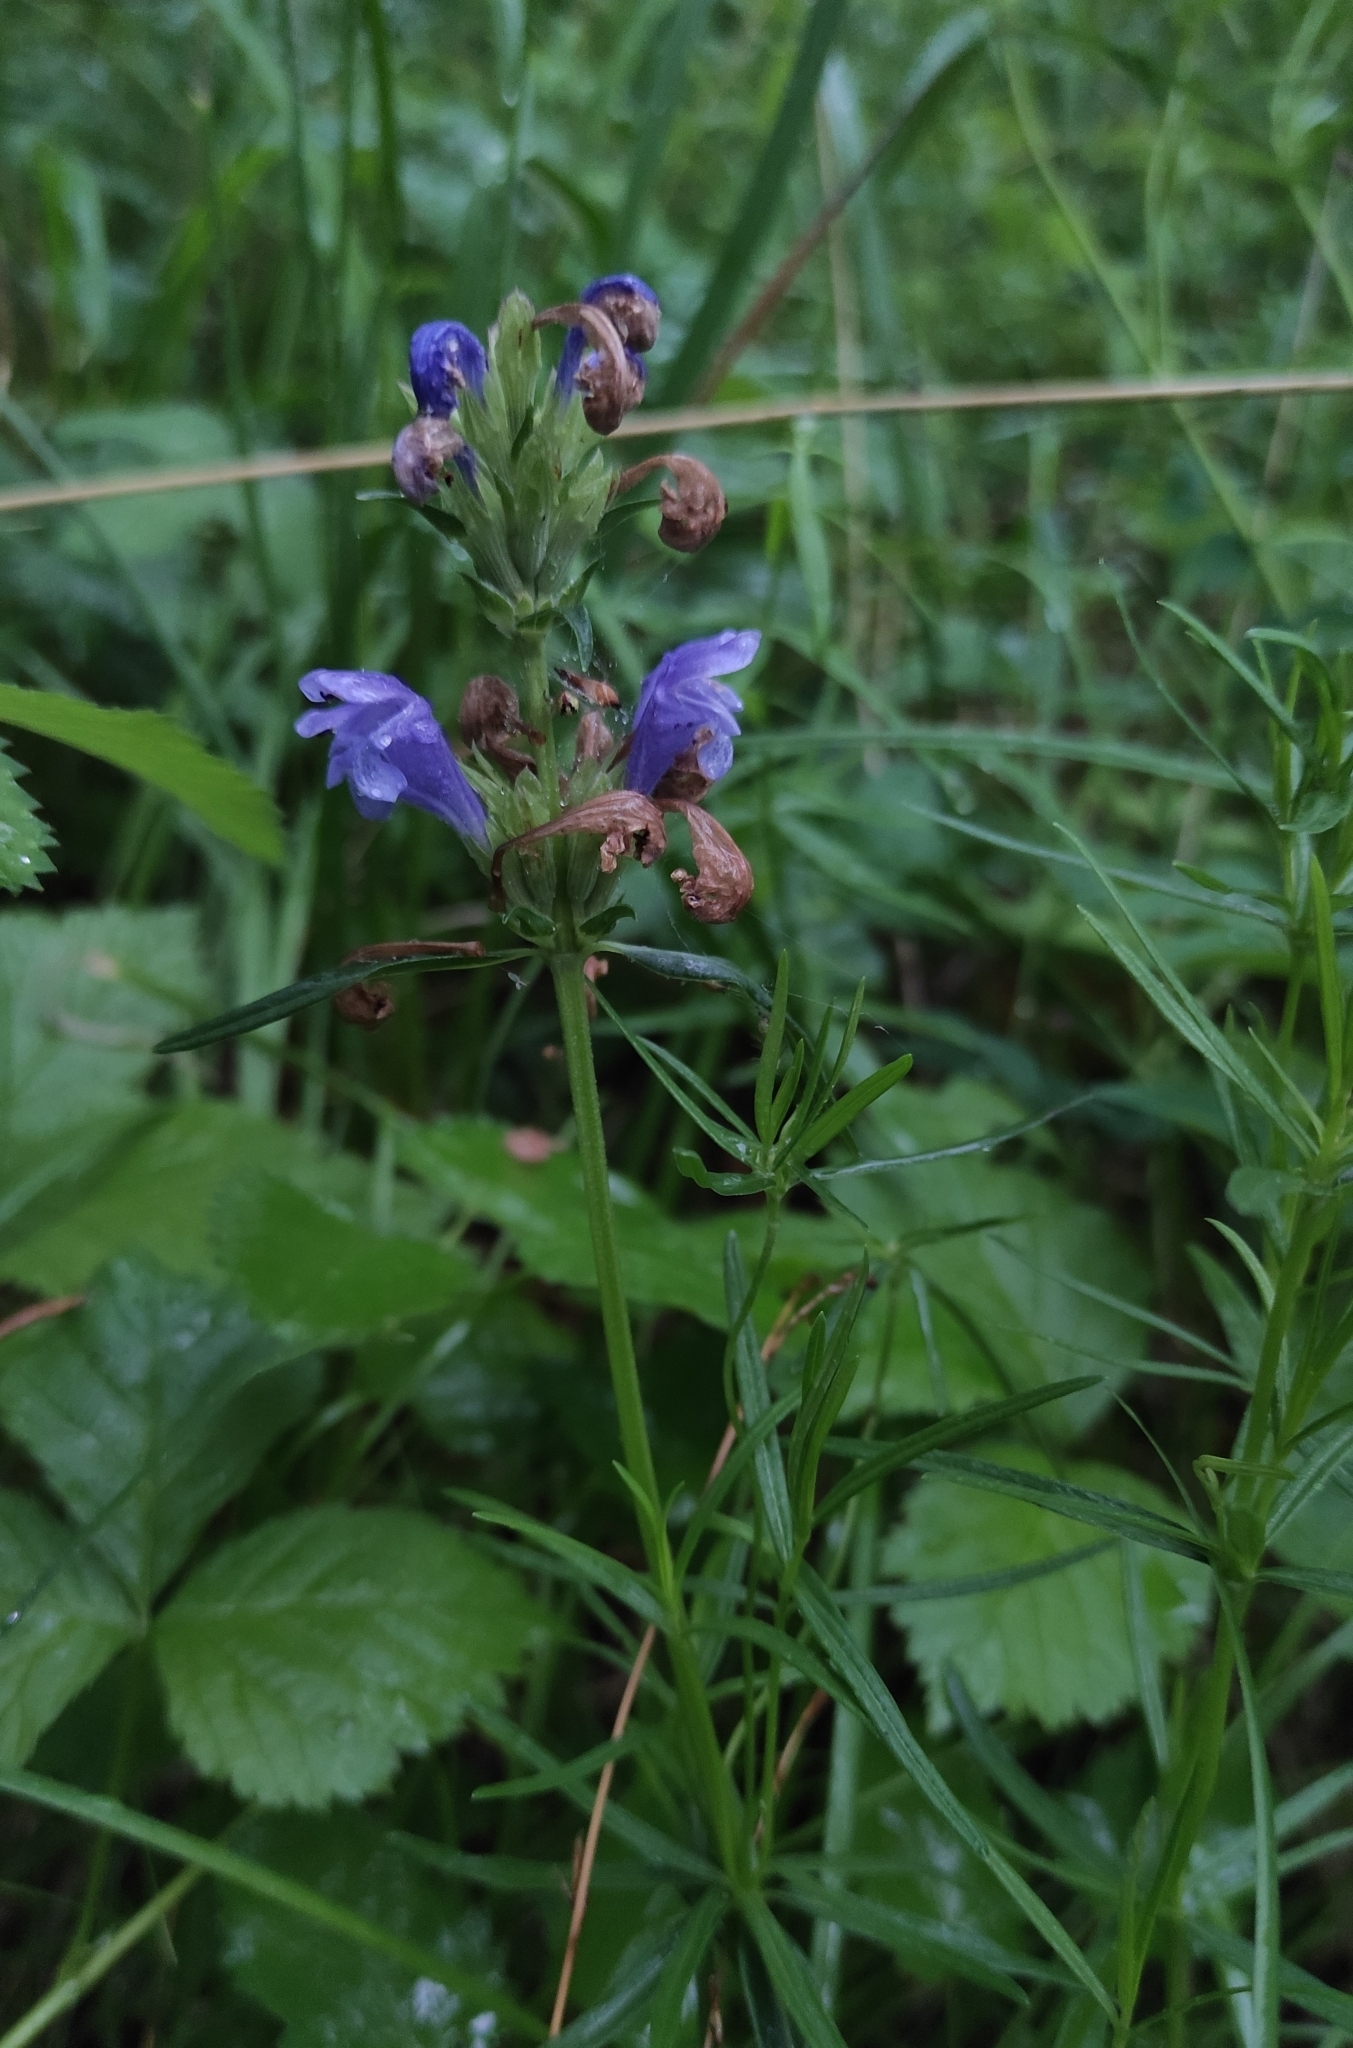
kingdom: Plantae
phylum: Tracheophyta
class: Magnoliopsida
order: Lamiales
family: Lamiaceae
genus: Dracocephalum
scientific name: Dracocephalum ruyschiana
